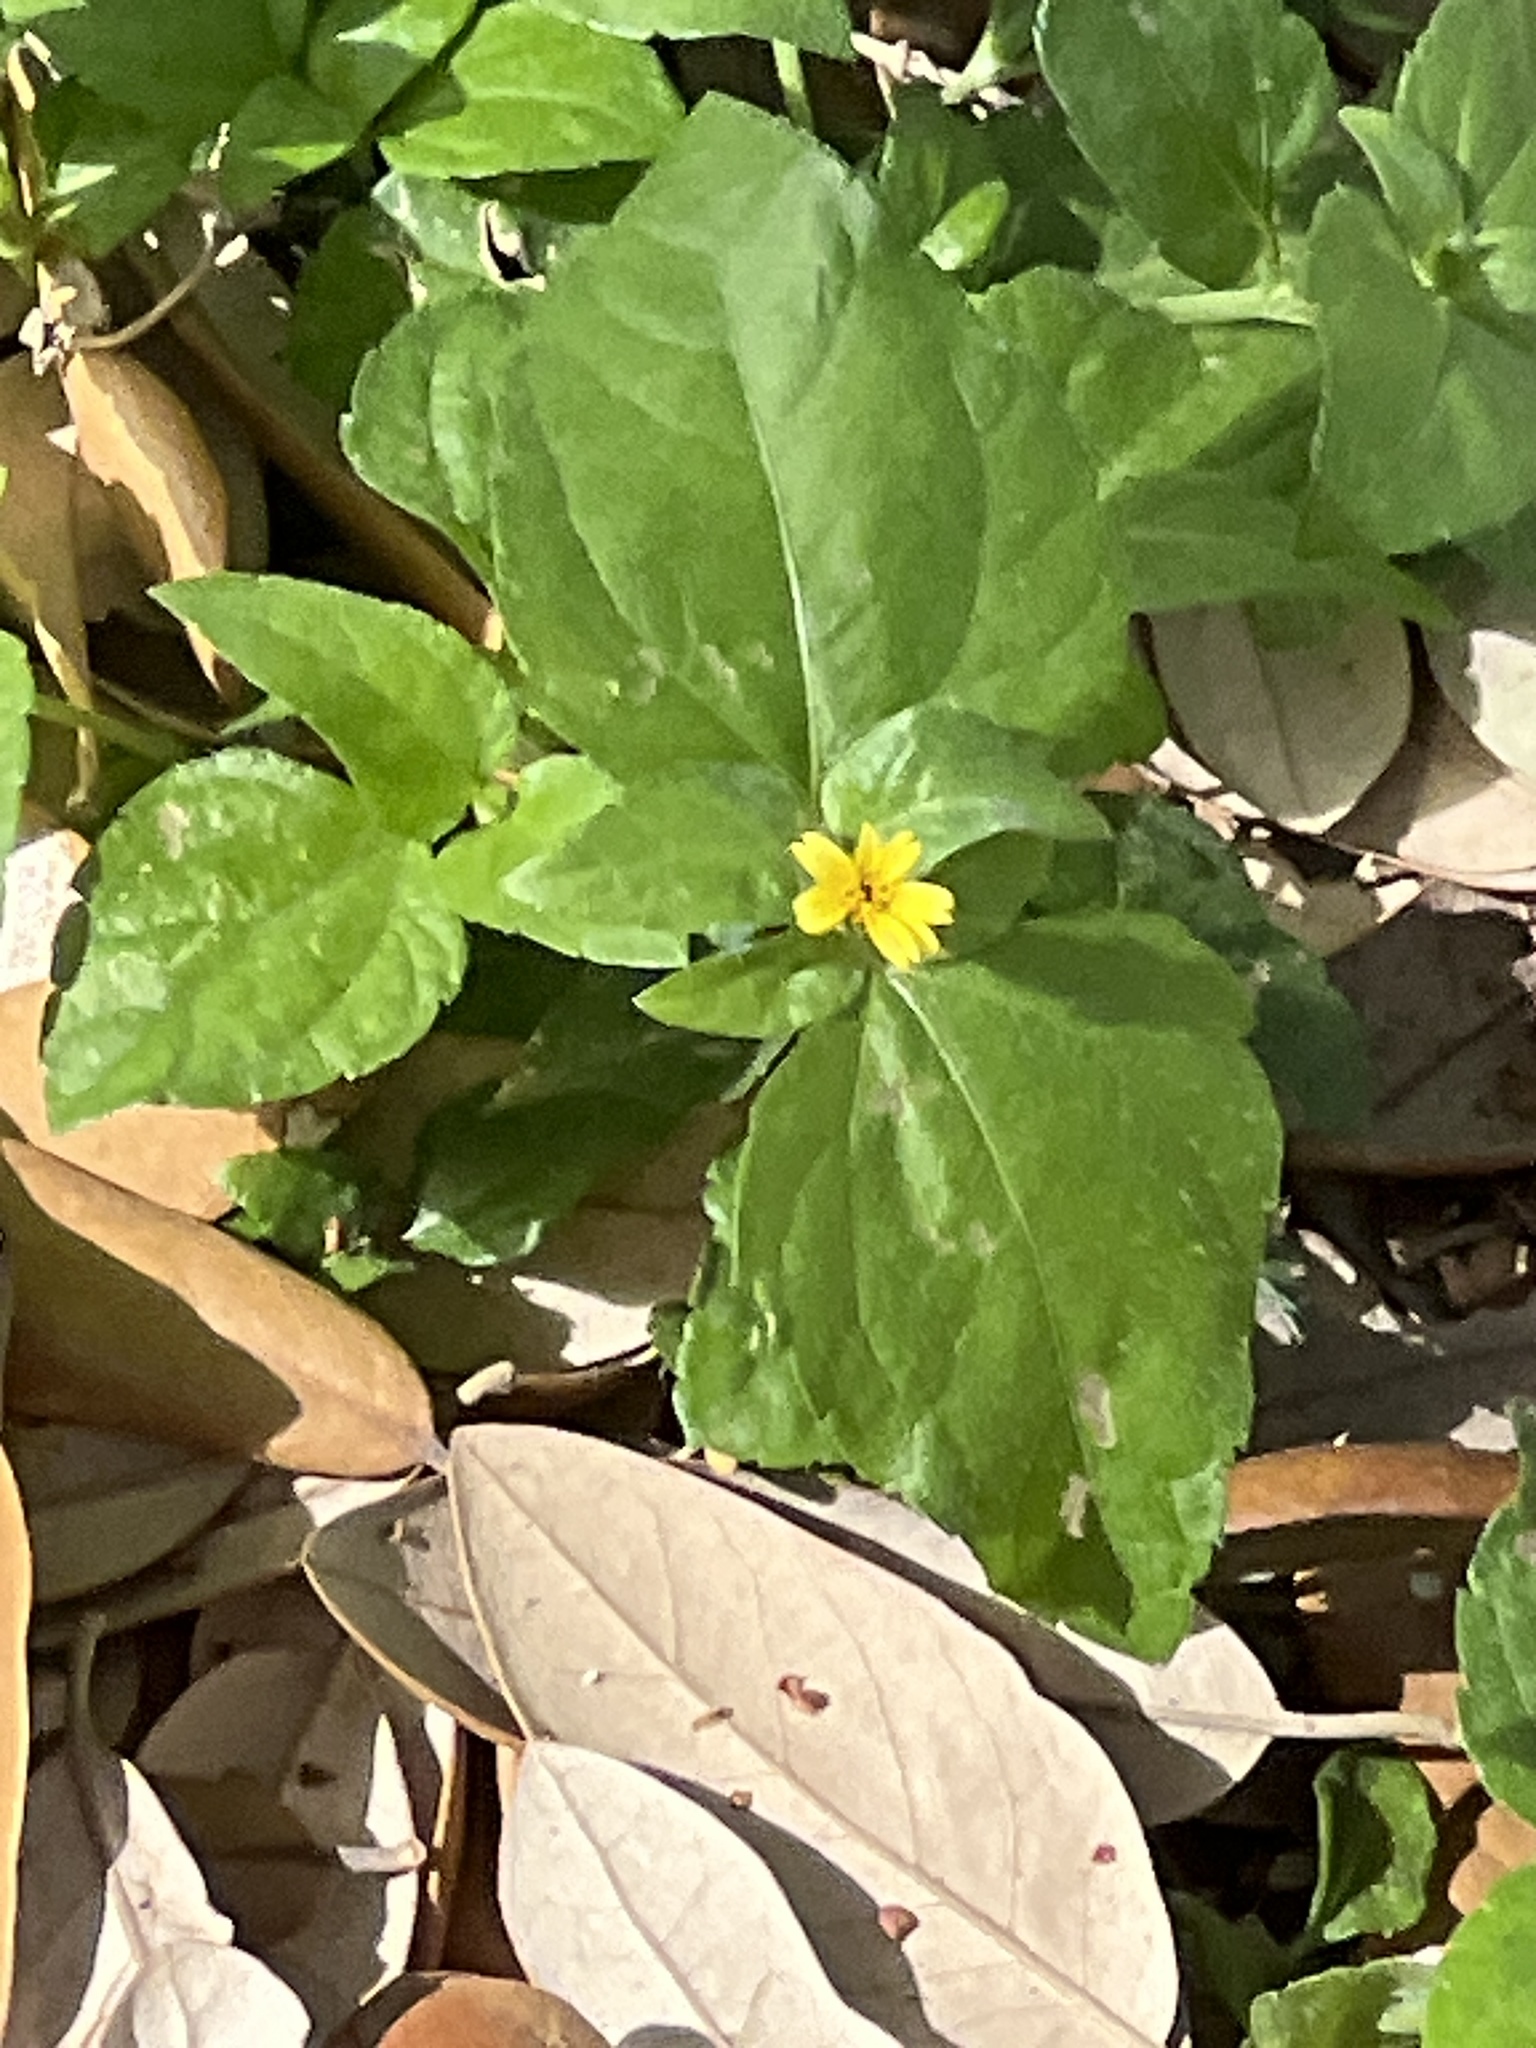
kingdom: Plantae
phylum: Tracheophyta
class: Magnoliopsida
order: Asterales
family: Asteraceae
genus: Calyptocarpus
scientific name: Calyptocarpus vialis
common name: Straggler daisy
